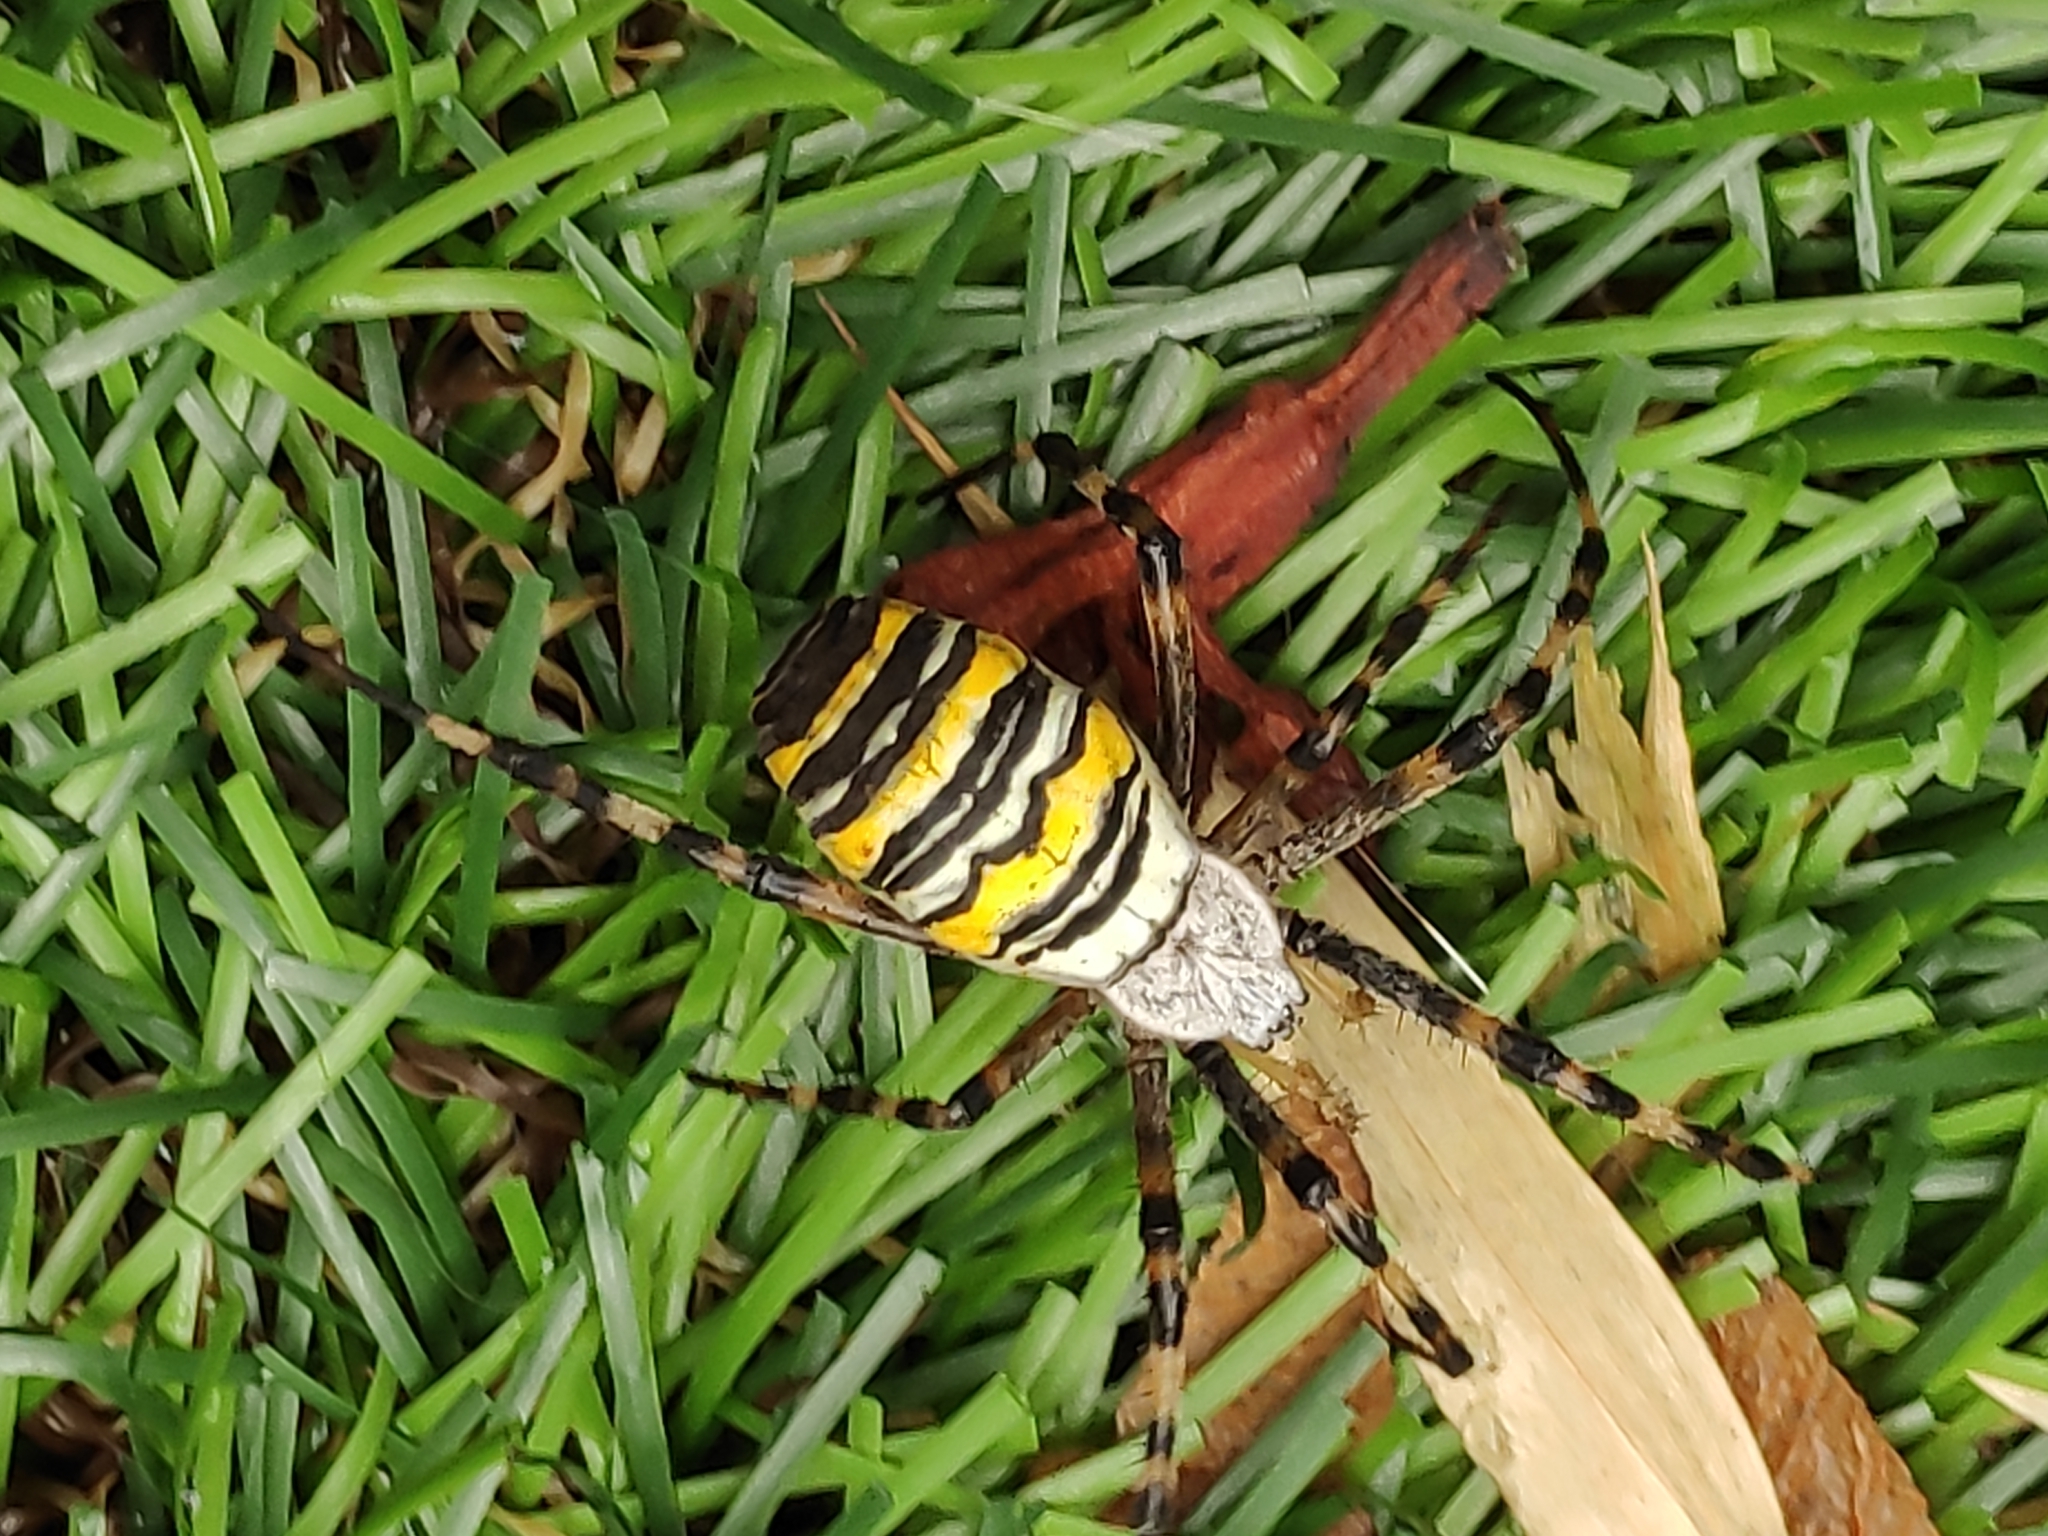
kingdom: Animalia
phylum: Arthropoda
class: Arachnida
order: Araneae
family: Araneidae
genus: Argiope
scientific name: Argiope bruennichi
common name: Wasp spider
